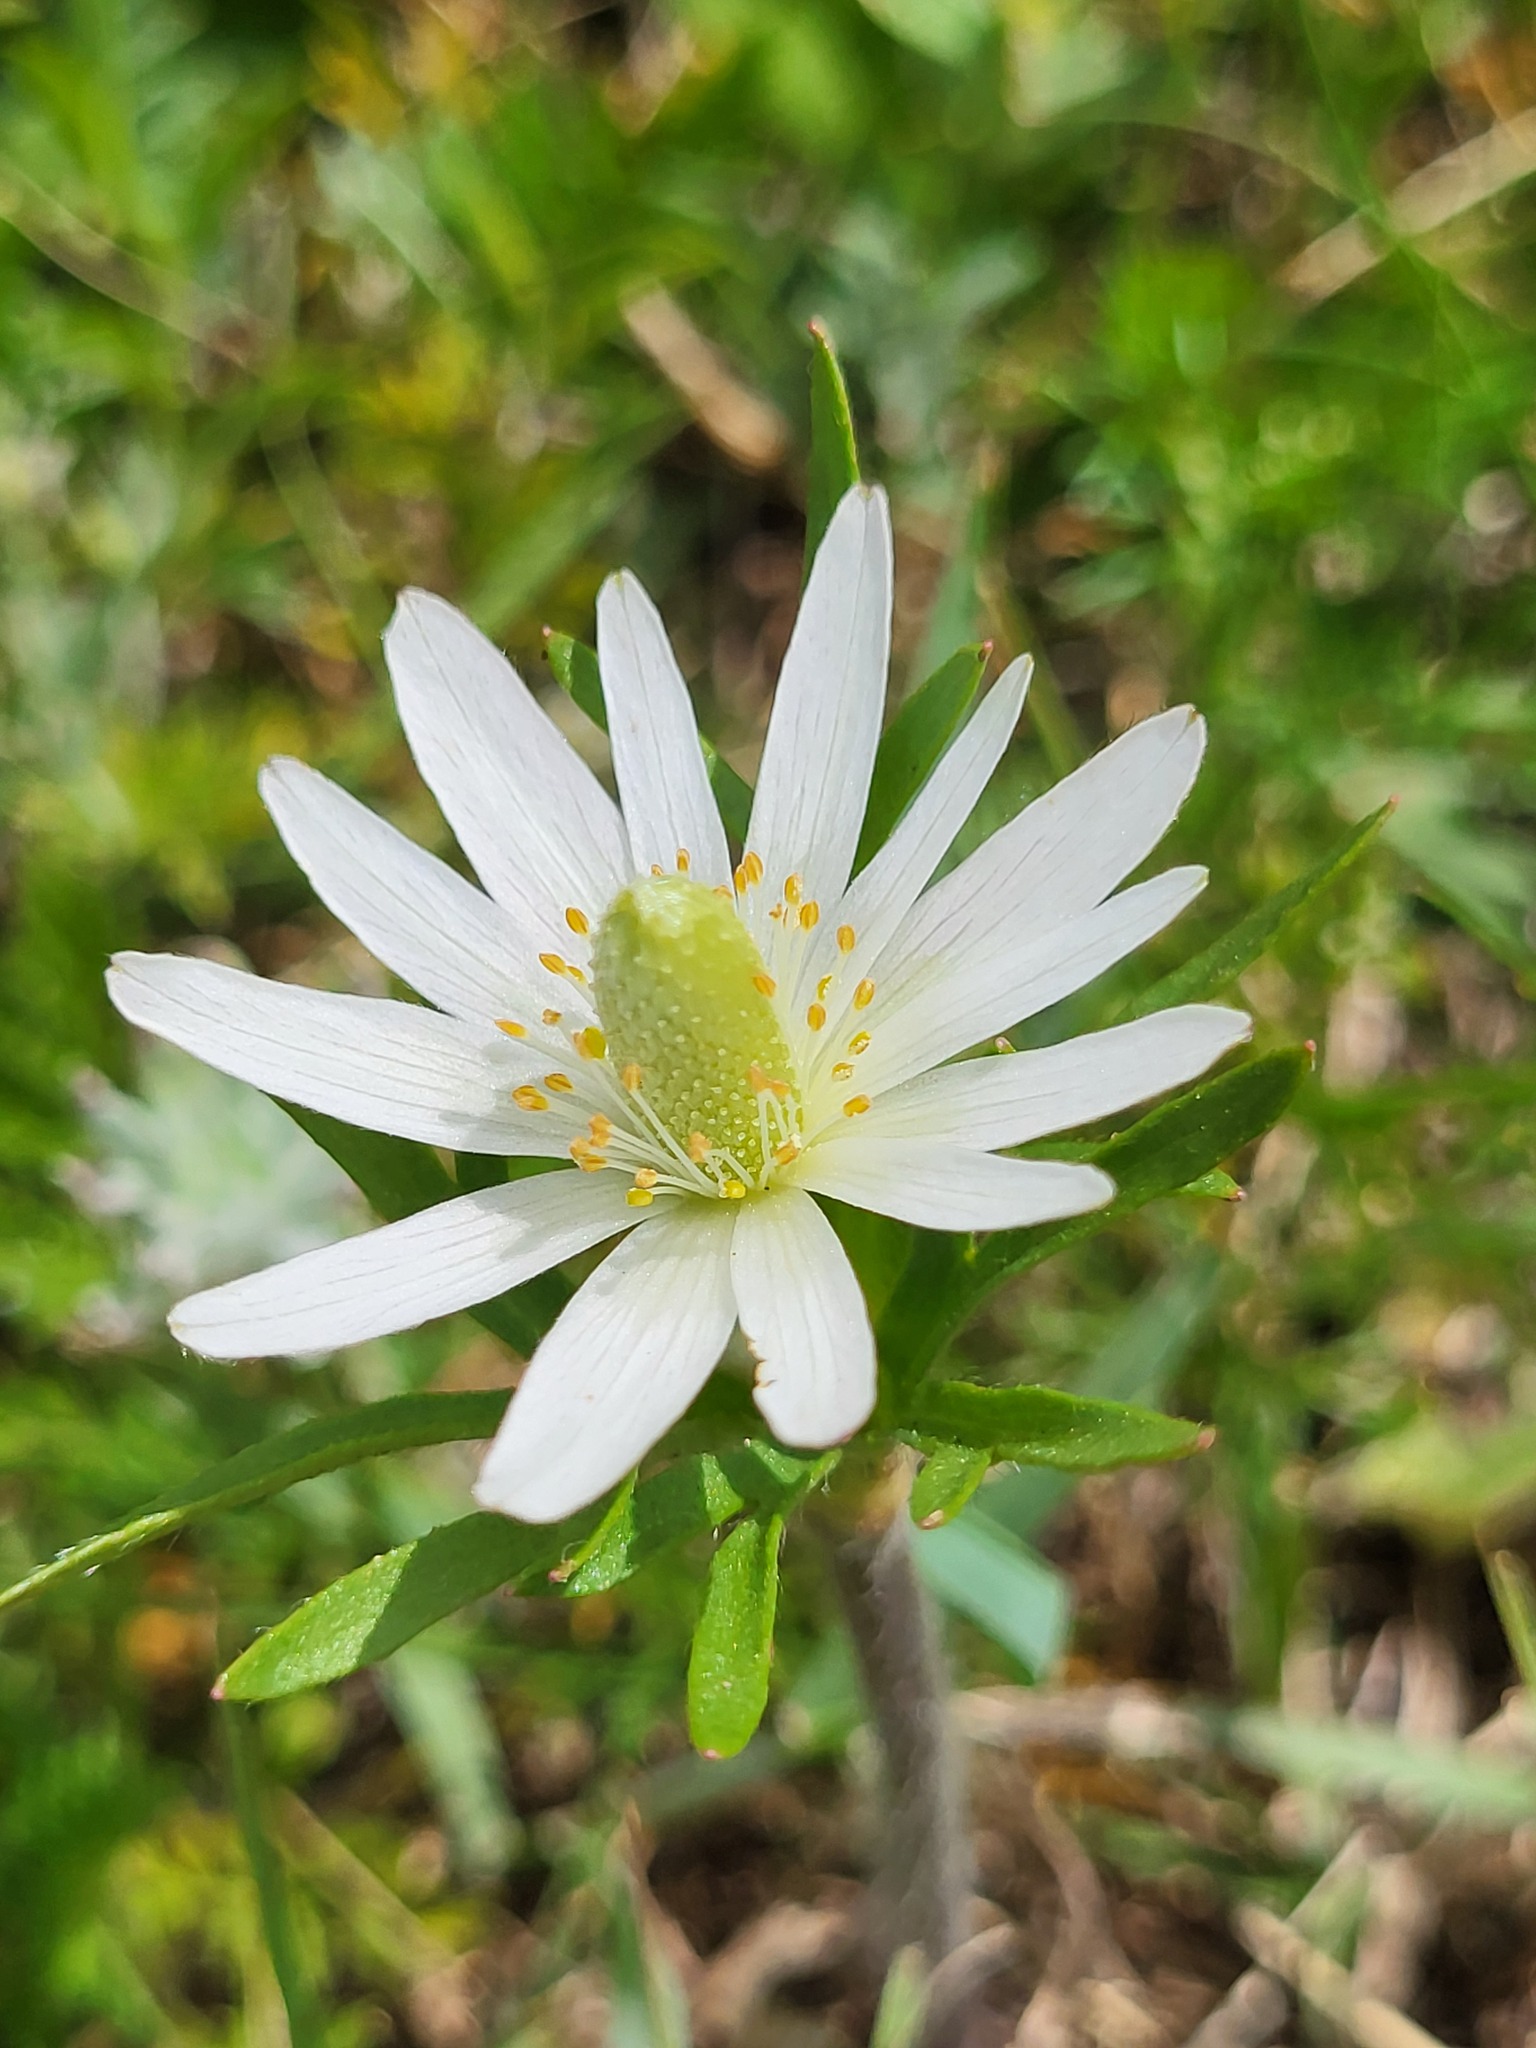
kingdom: Plantae
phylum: Tracheophyta
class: Magnoliopsida
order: Ranunculales
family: Ranunculaceae
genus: Anemone
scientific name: Anemone berlandieri
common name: Ten-petal anemone
